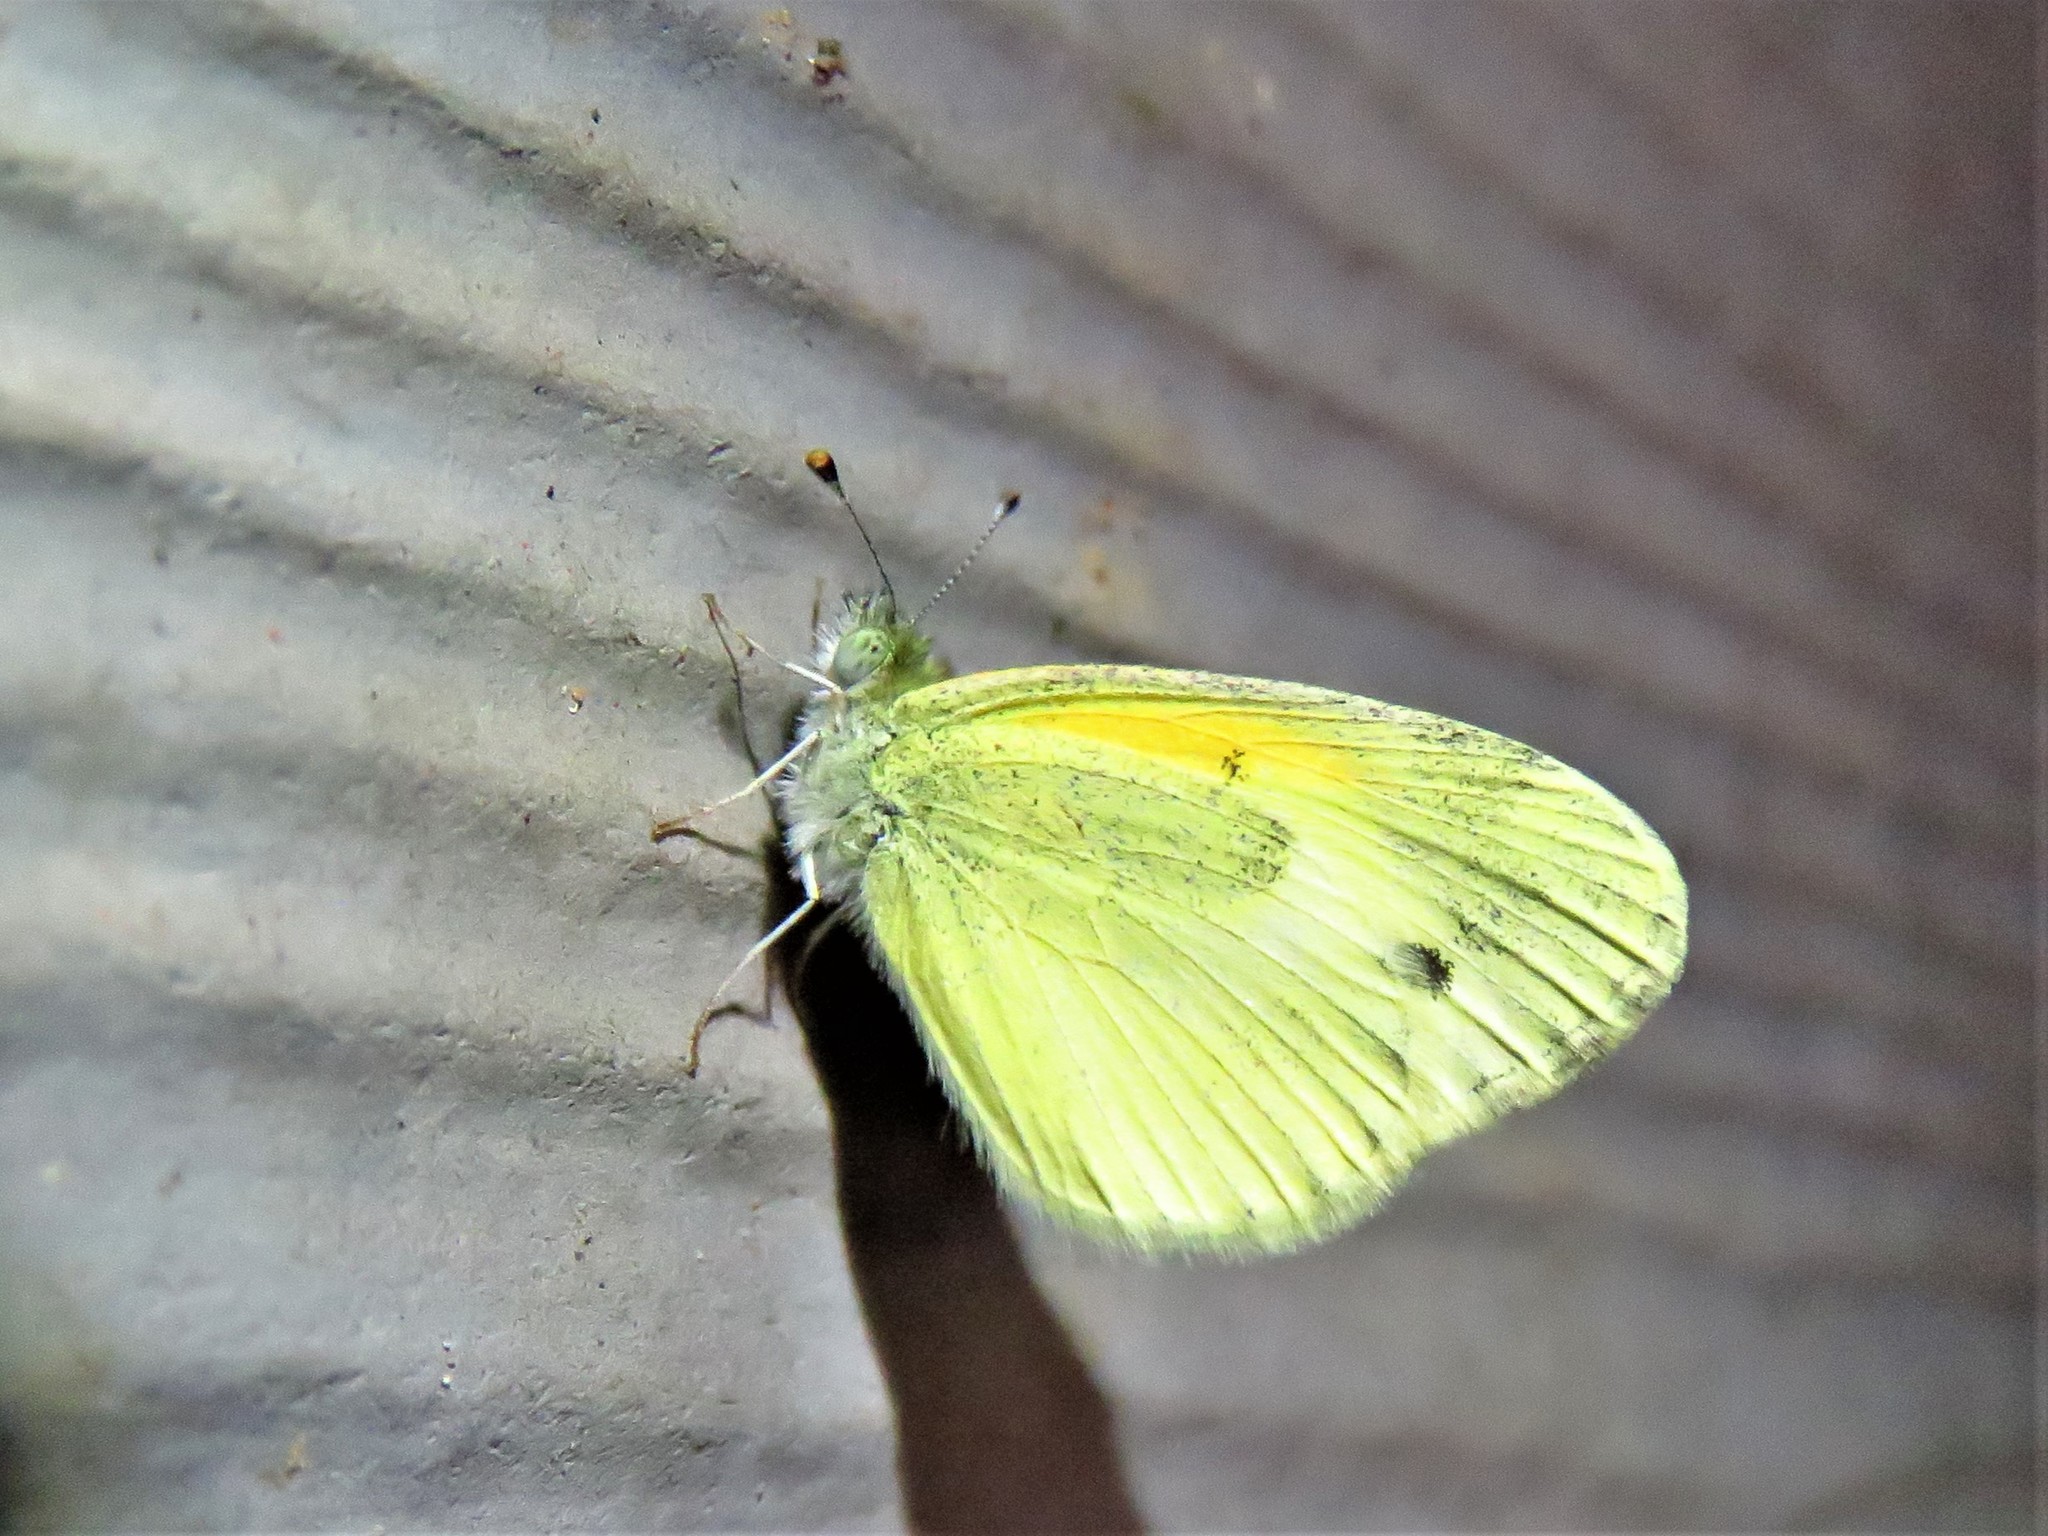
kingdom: Animalia
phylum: Arthropoda
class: Insecta
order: Lepidoptera
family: Pieridae
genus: Nathalis
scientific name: Nathalis iole
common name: Dainty sulphur
